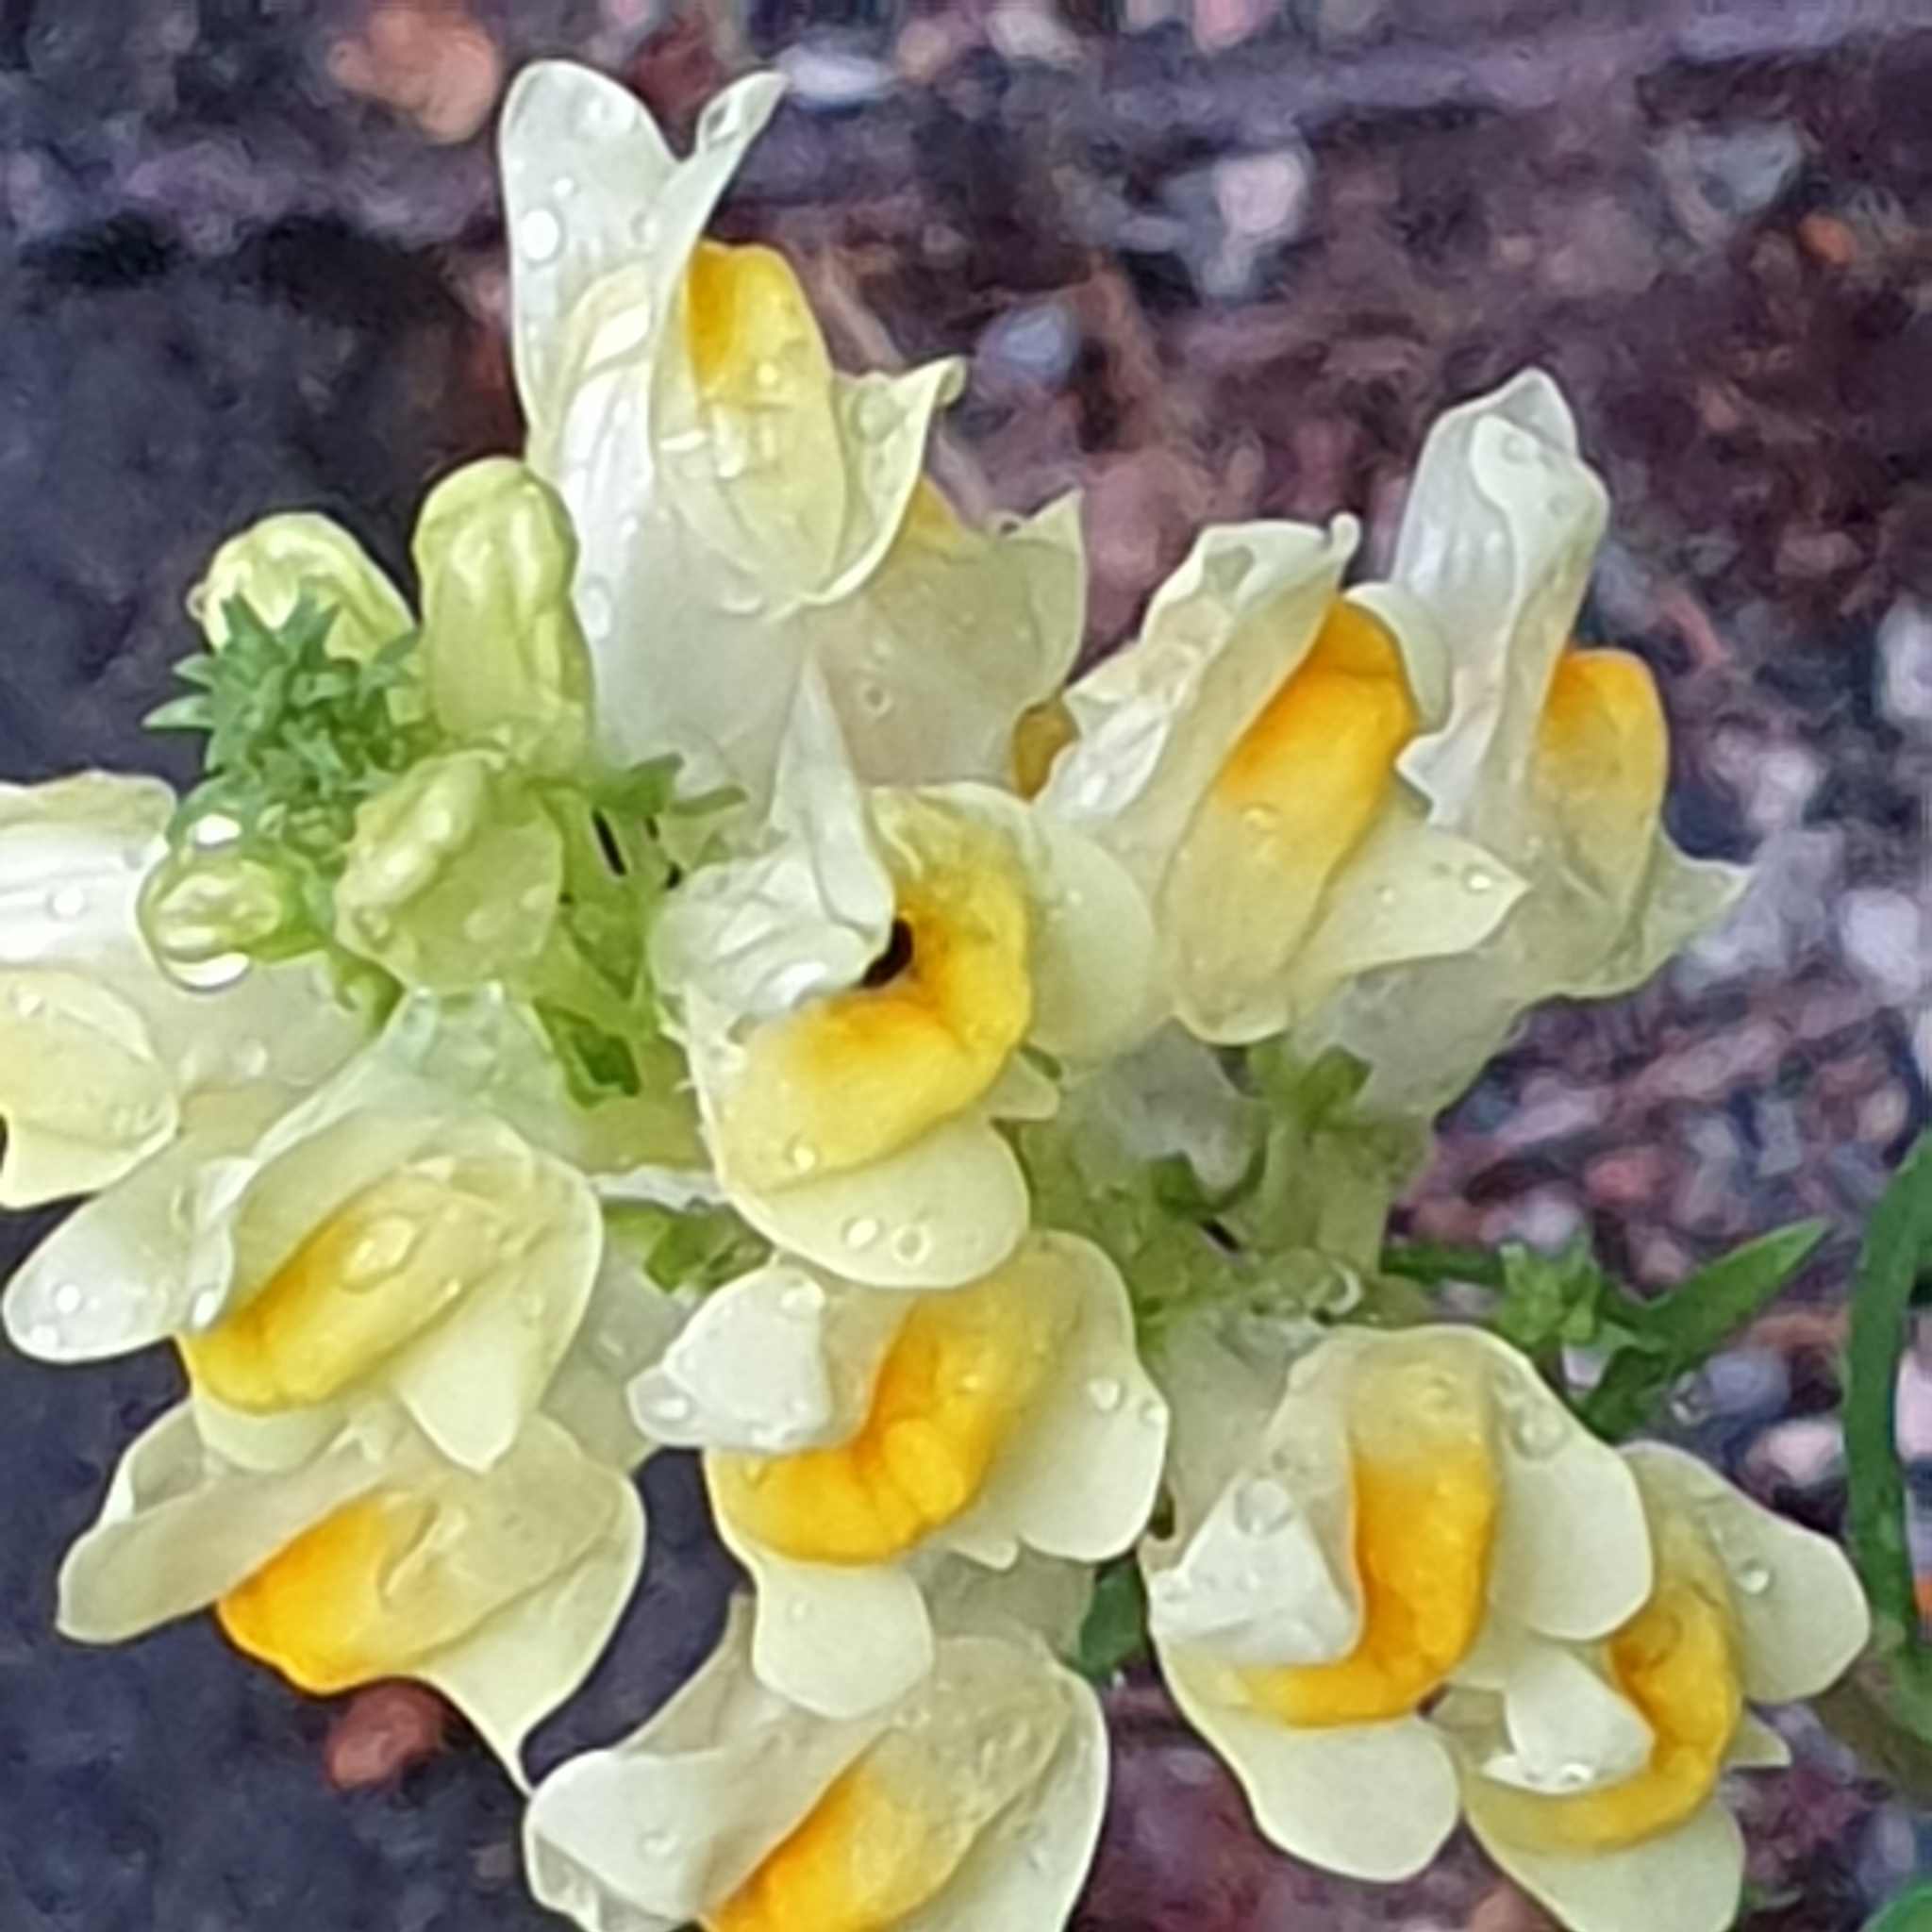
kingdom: Plantae
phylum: Tracheophyta
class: Magnoliopsida
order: Lamiales
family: Plantaginaceae
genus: Linaria
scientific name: Linaria vulgaris
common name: Butter and eggs
